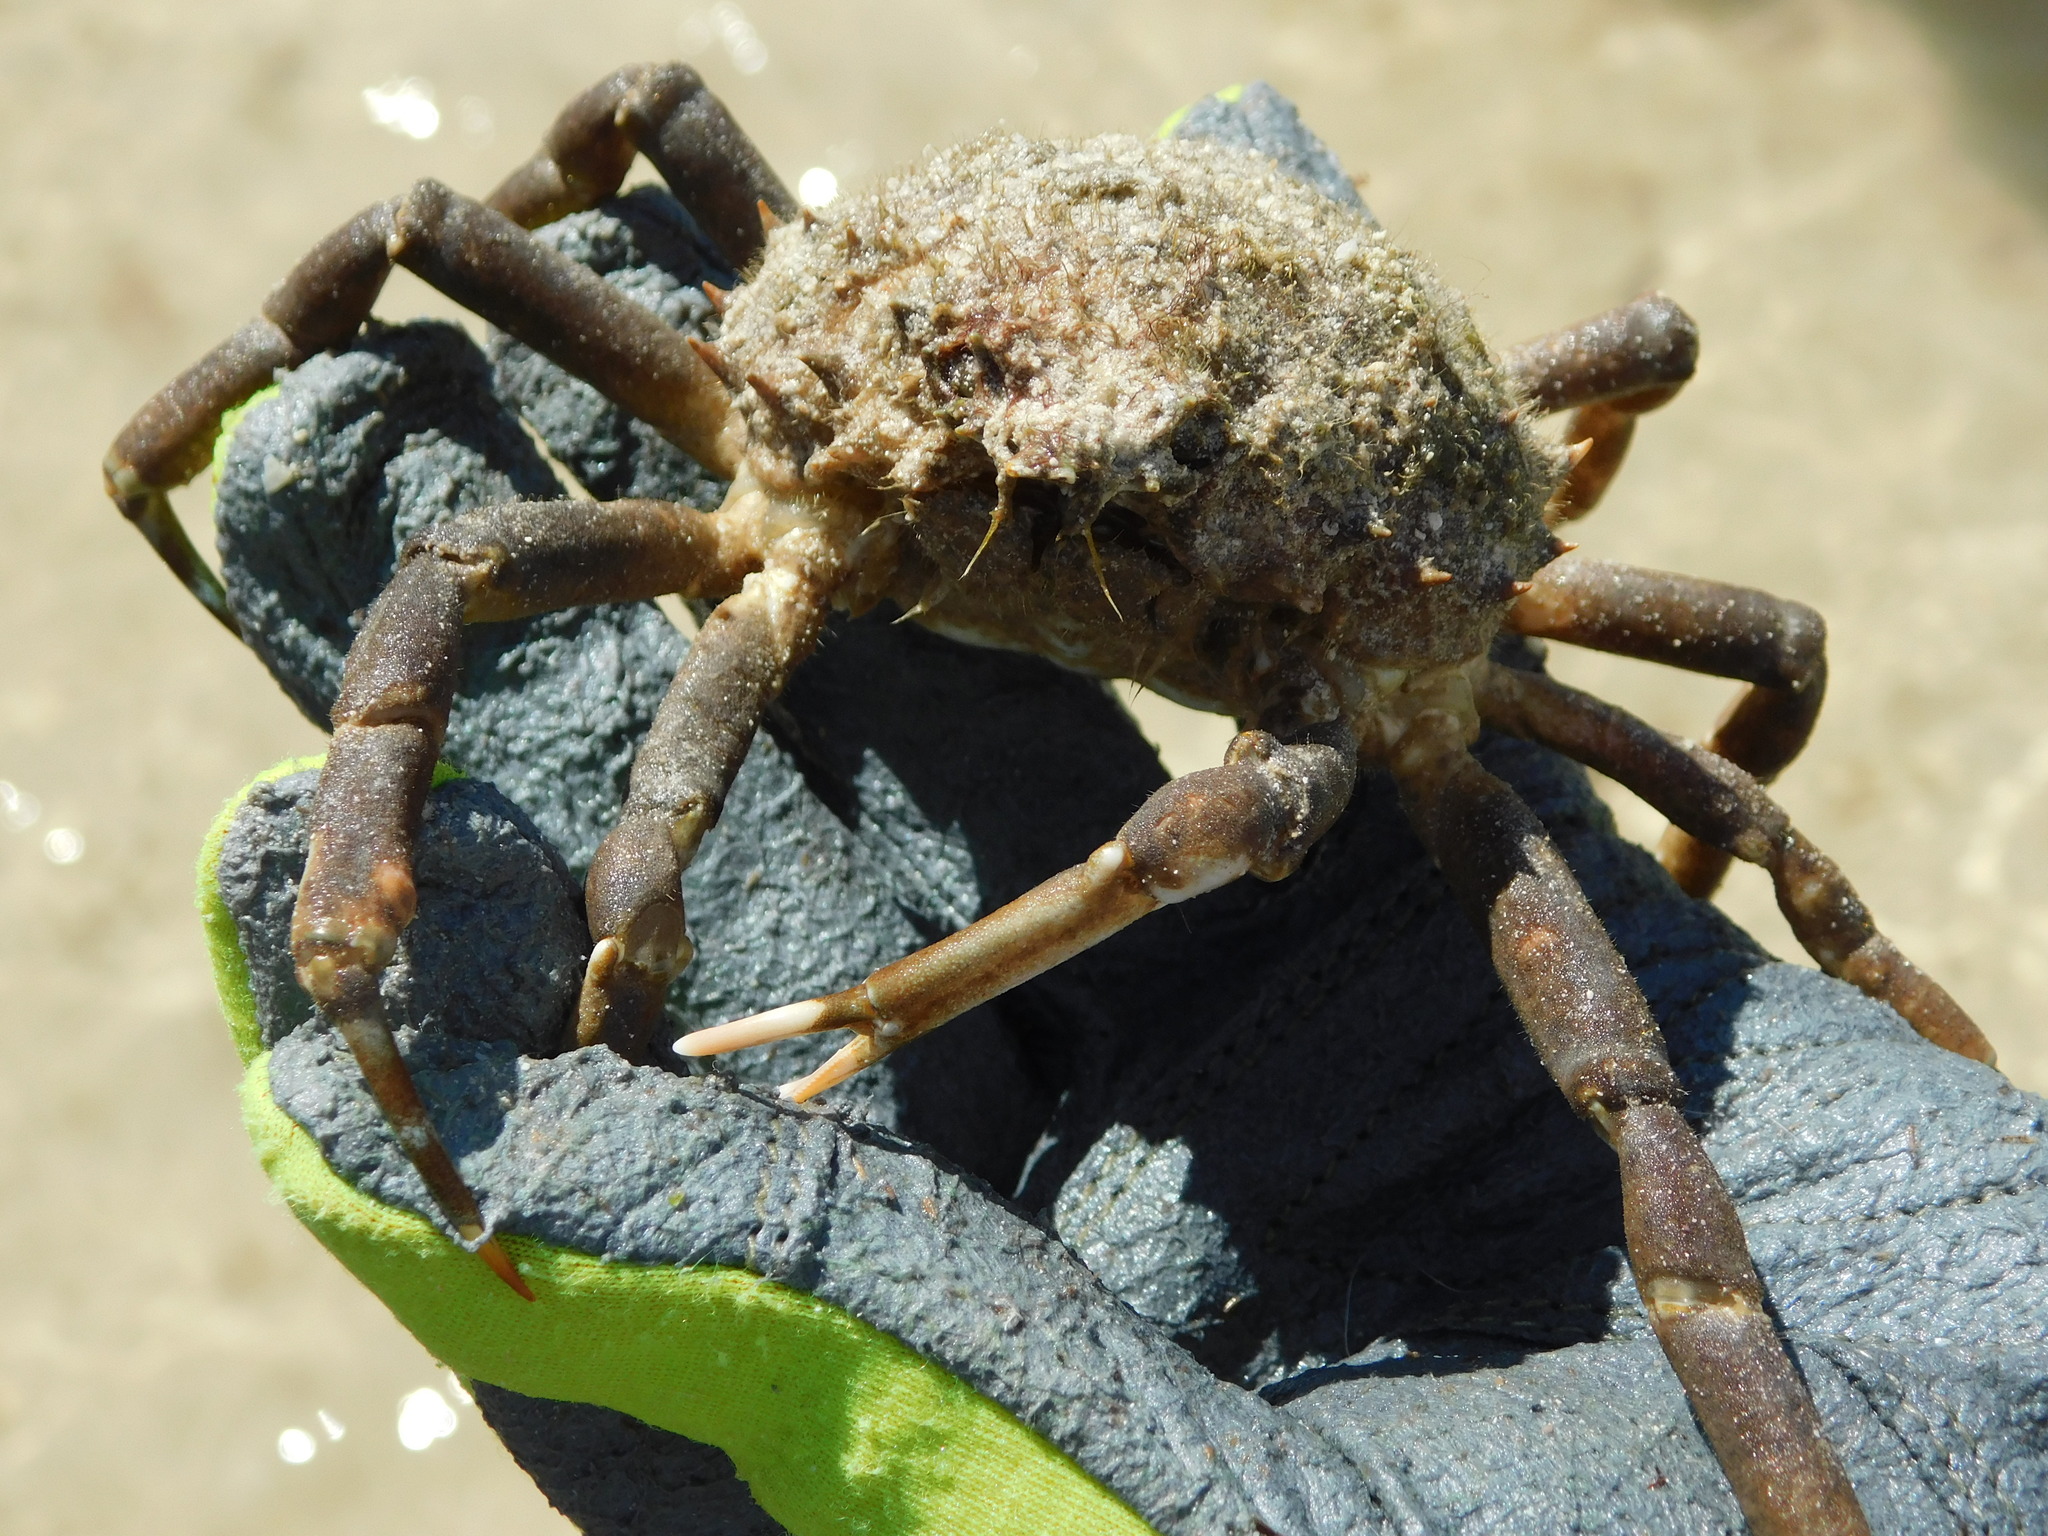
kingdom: Animalia
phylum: Arthropoda
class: Malacostraca
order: Decapoda
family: Epialtidae
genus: Libinia
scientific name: Libinia emarginata
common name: Common spider crab
